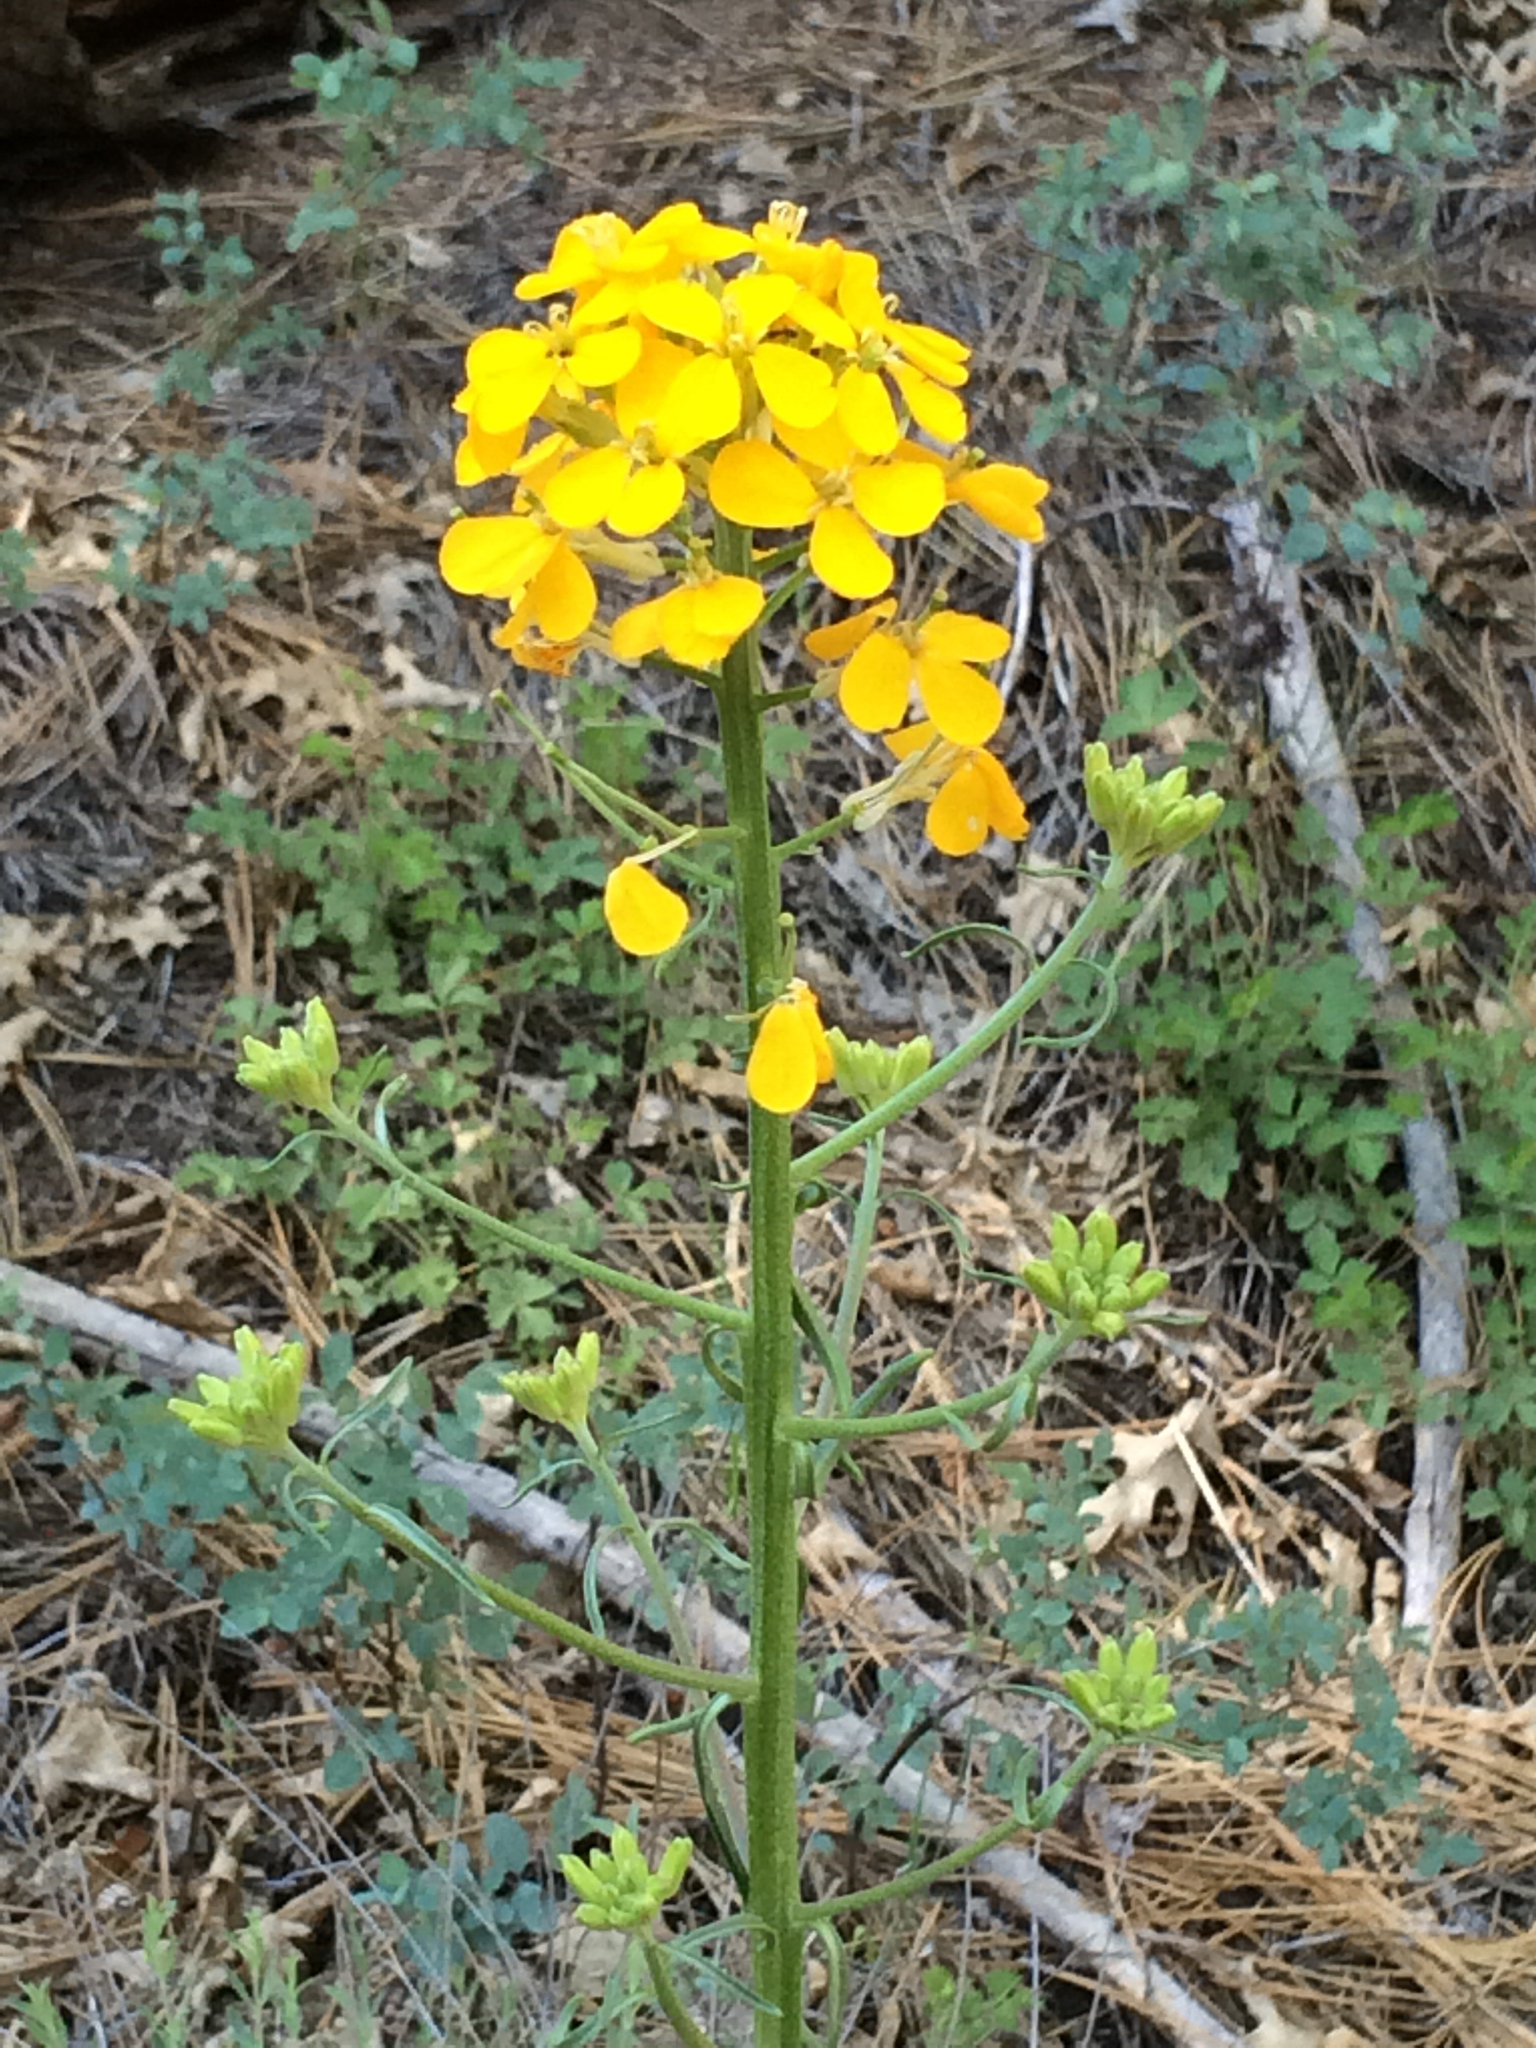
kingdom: Plantae
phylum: Tracheophyta
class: Magnoliopsida
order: Brassicales
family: Brassicaceae
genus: Erysimum
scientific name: Erysimum capitatum
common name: Western wallflower
